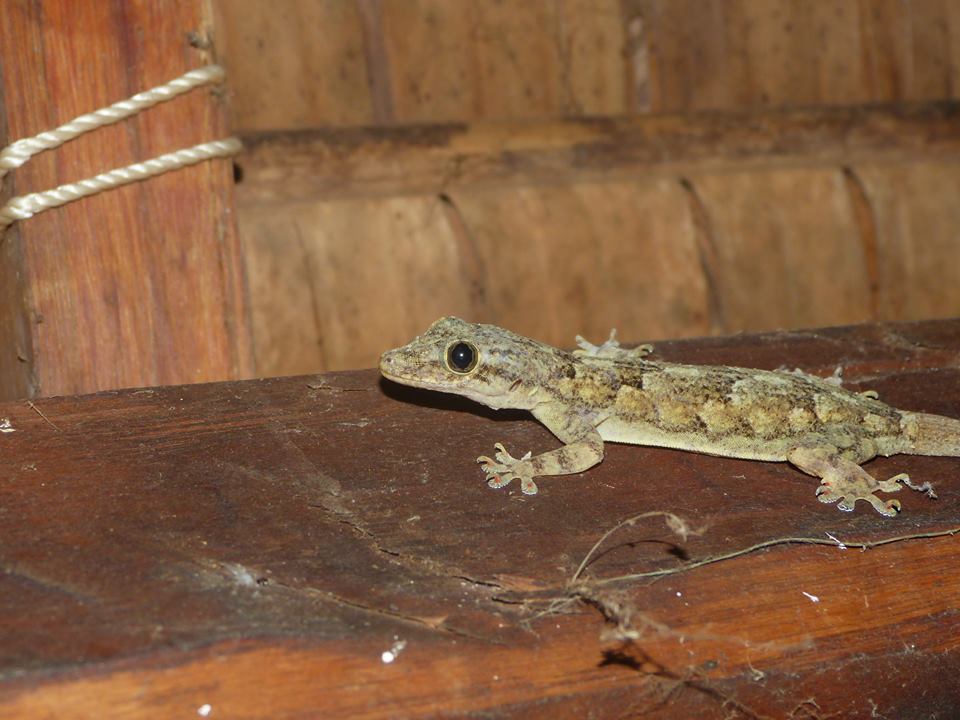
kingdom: Animalia
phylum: Chordata
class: Squamata
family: Gekkonidae
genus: Hemidactylus
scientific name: Hemidactylus mercatorius
